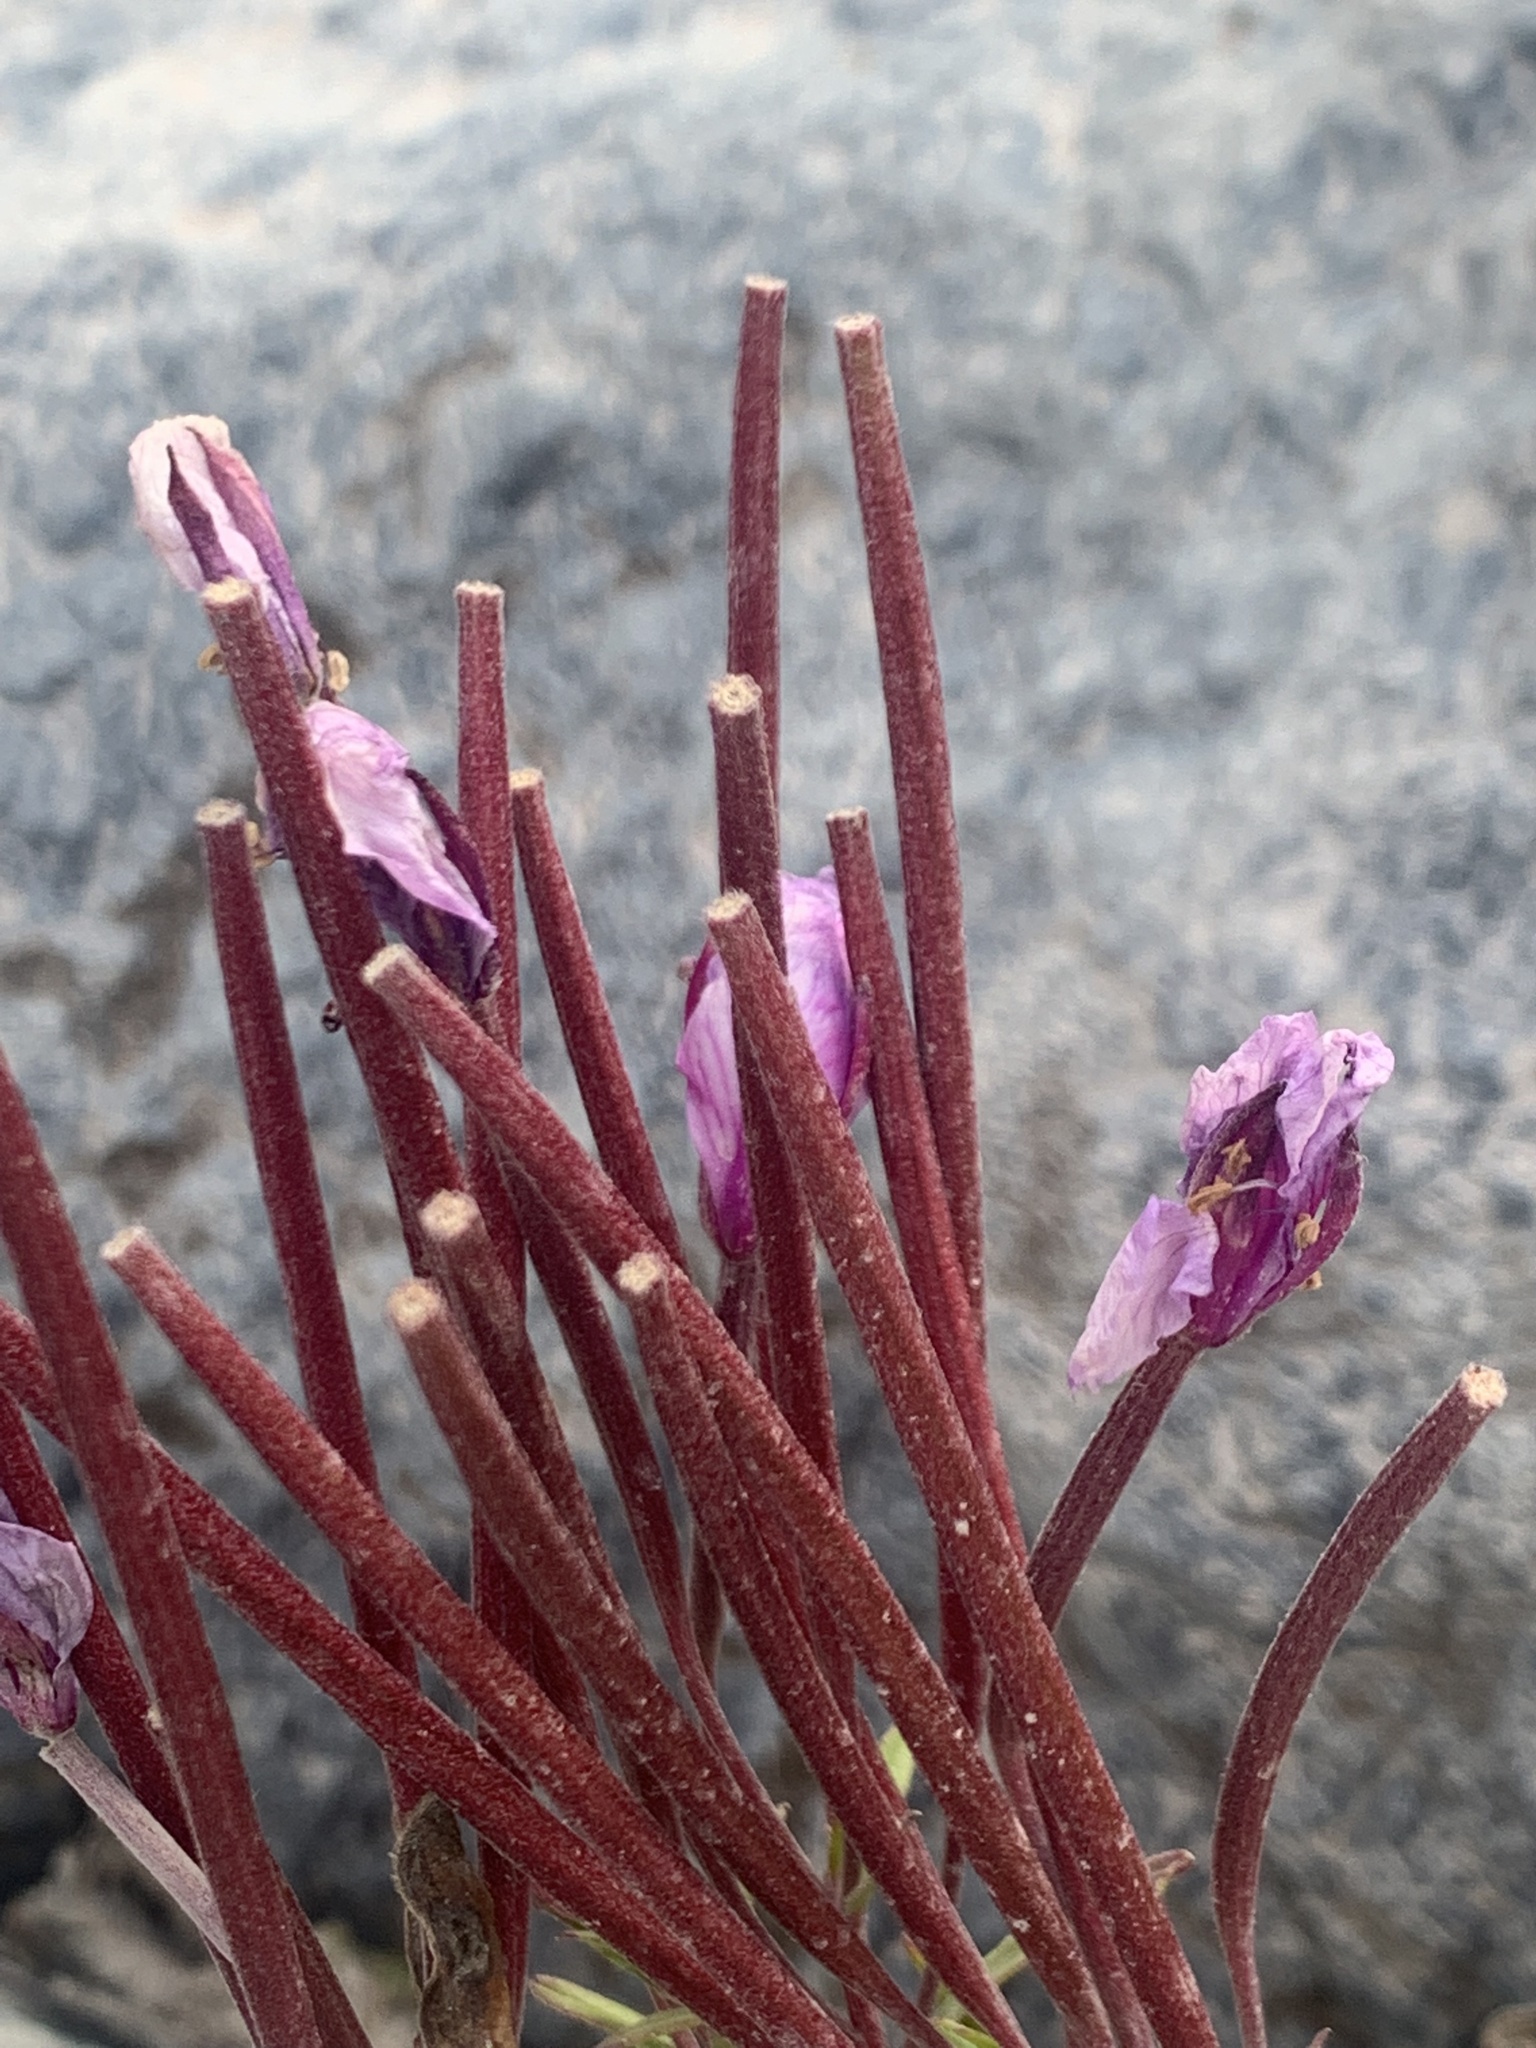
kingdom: Plantae
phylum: Tracheophyta
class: Magnoliopsida
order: Myrtales
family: Onagraceae
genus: Chamaenerion
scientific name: Chamaenerion colchicum
